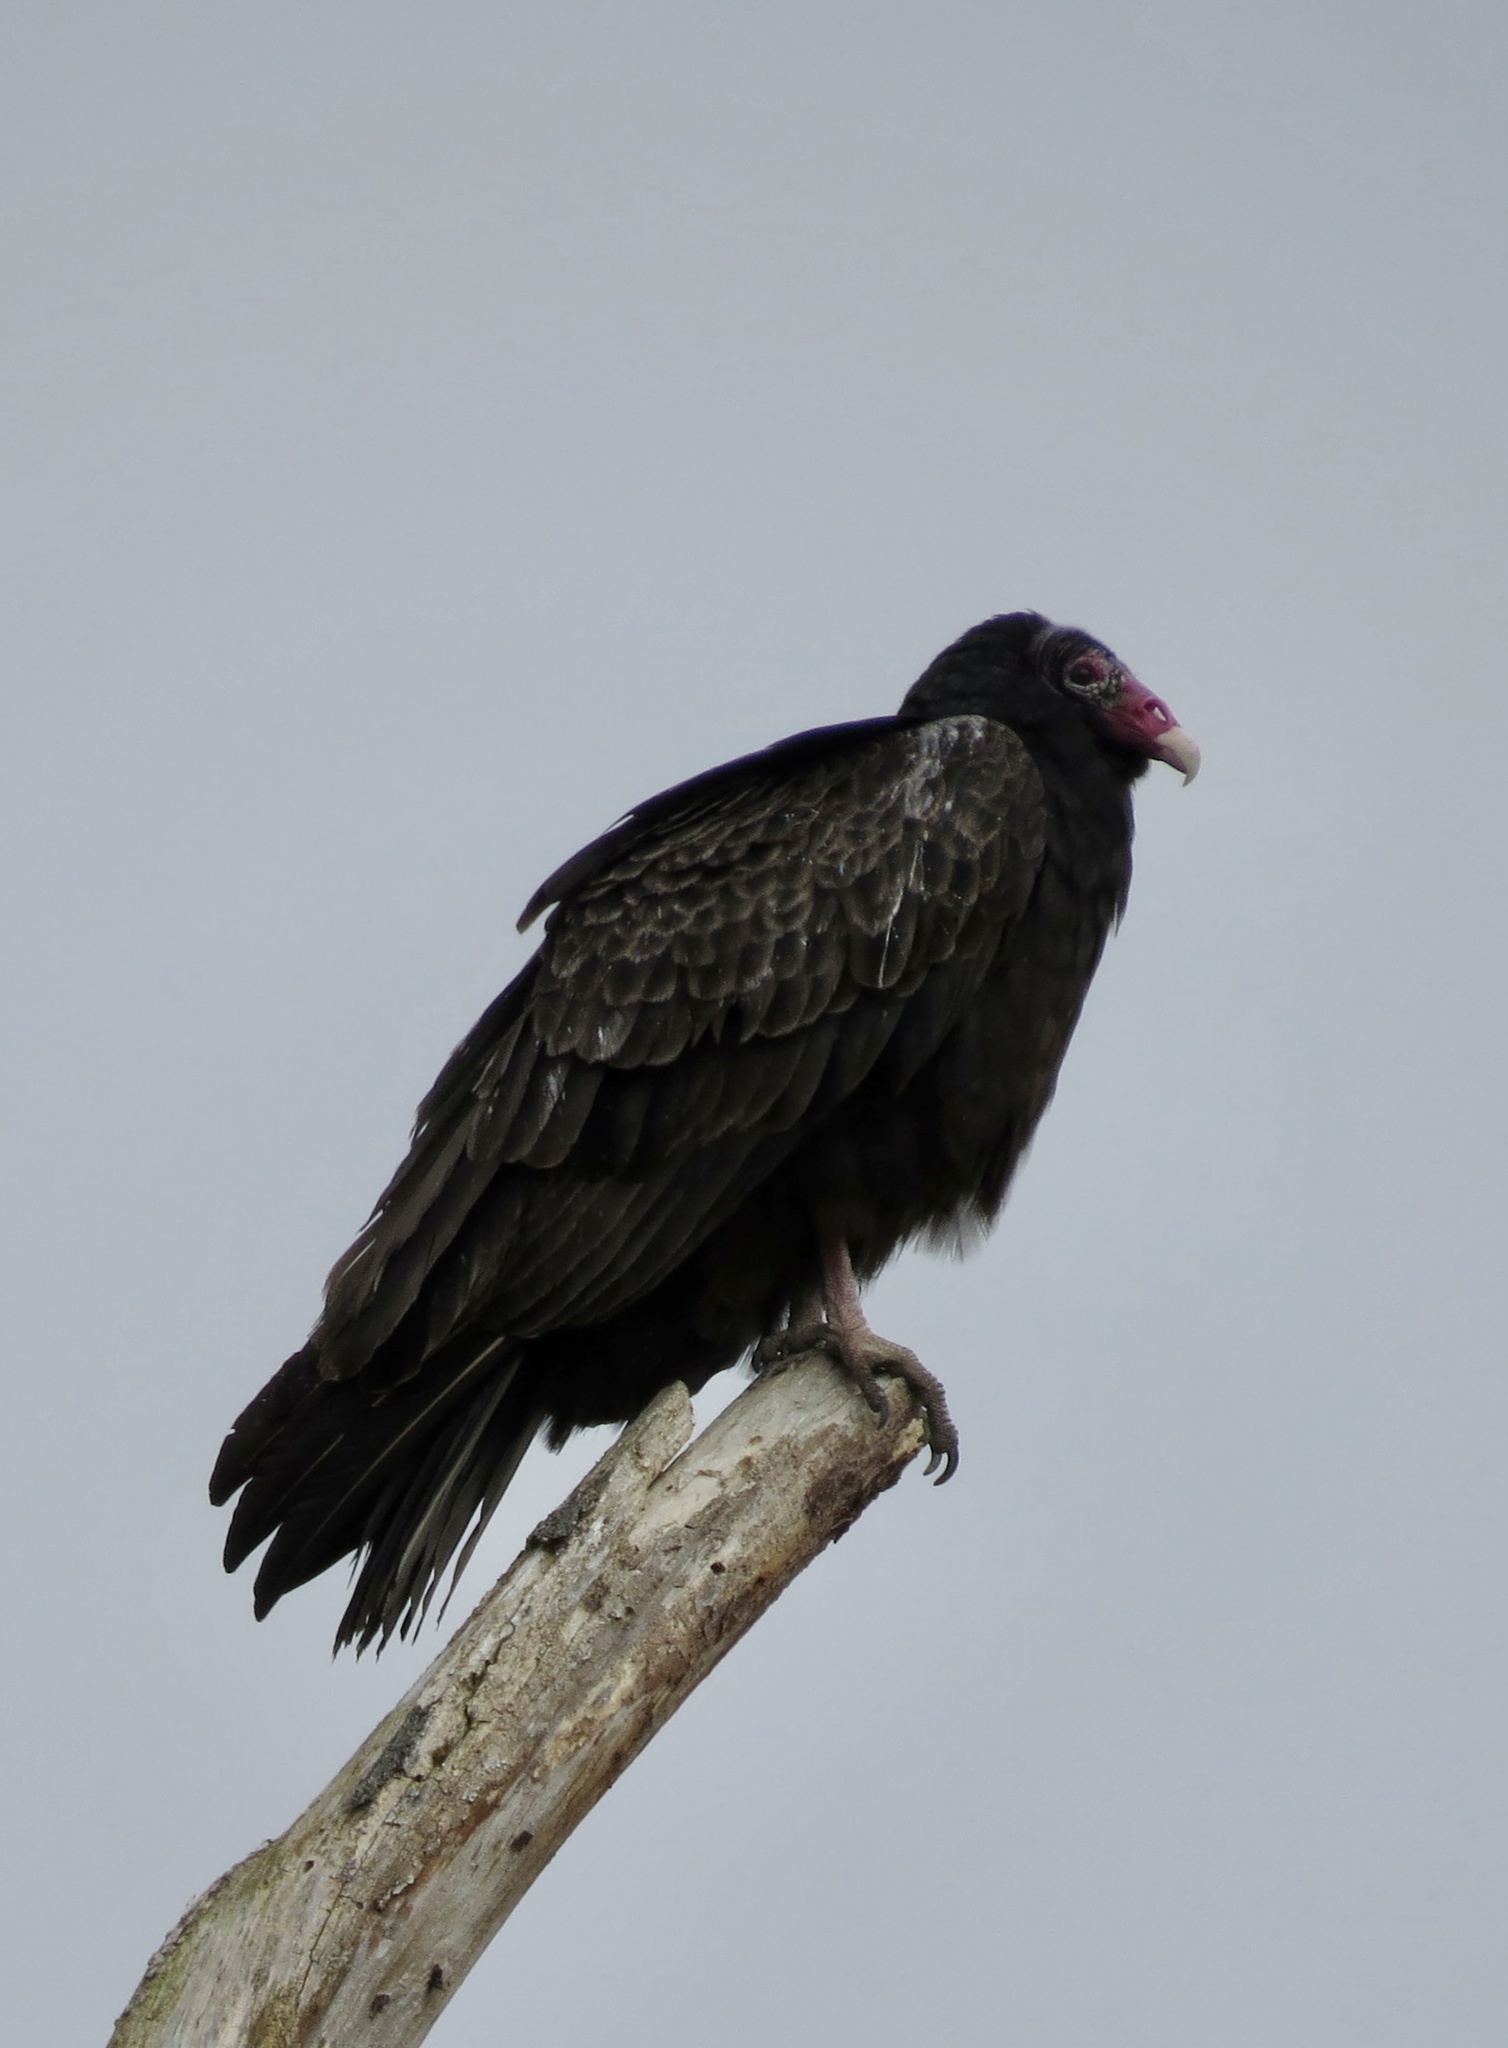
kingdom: Animalia
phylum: Chordata
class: Aves
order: Accipitriformes
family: Cathartidae
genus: Cathartes
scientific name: Cathartes aura
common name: Turkey vulture
